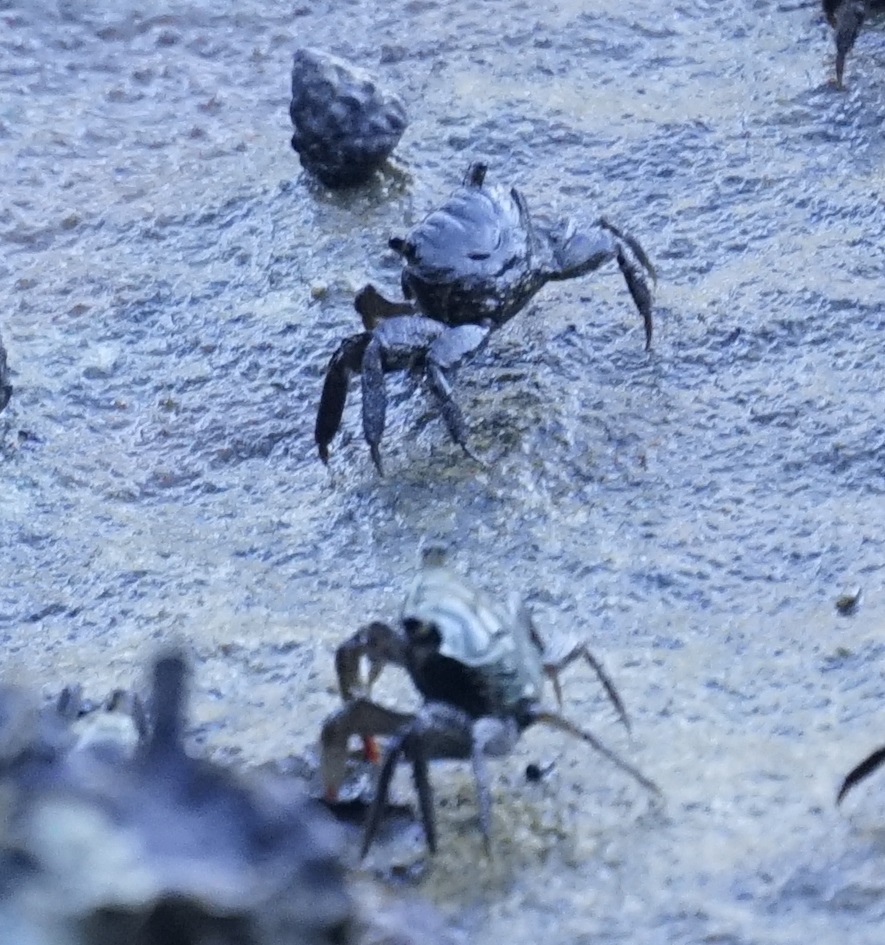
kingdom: Animalia
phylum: Arthropoda
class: Malacostraca
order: Decapoda
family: Sesarmidae
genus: Parasesarma
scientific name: Parasesarma erythodactylum
